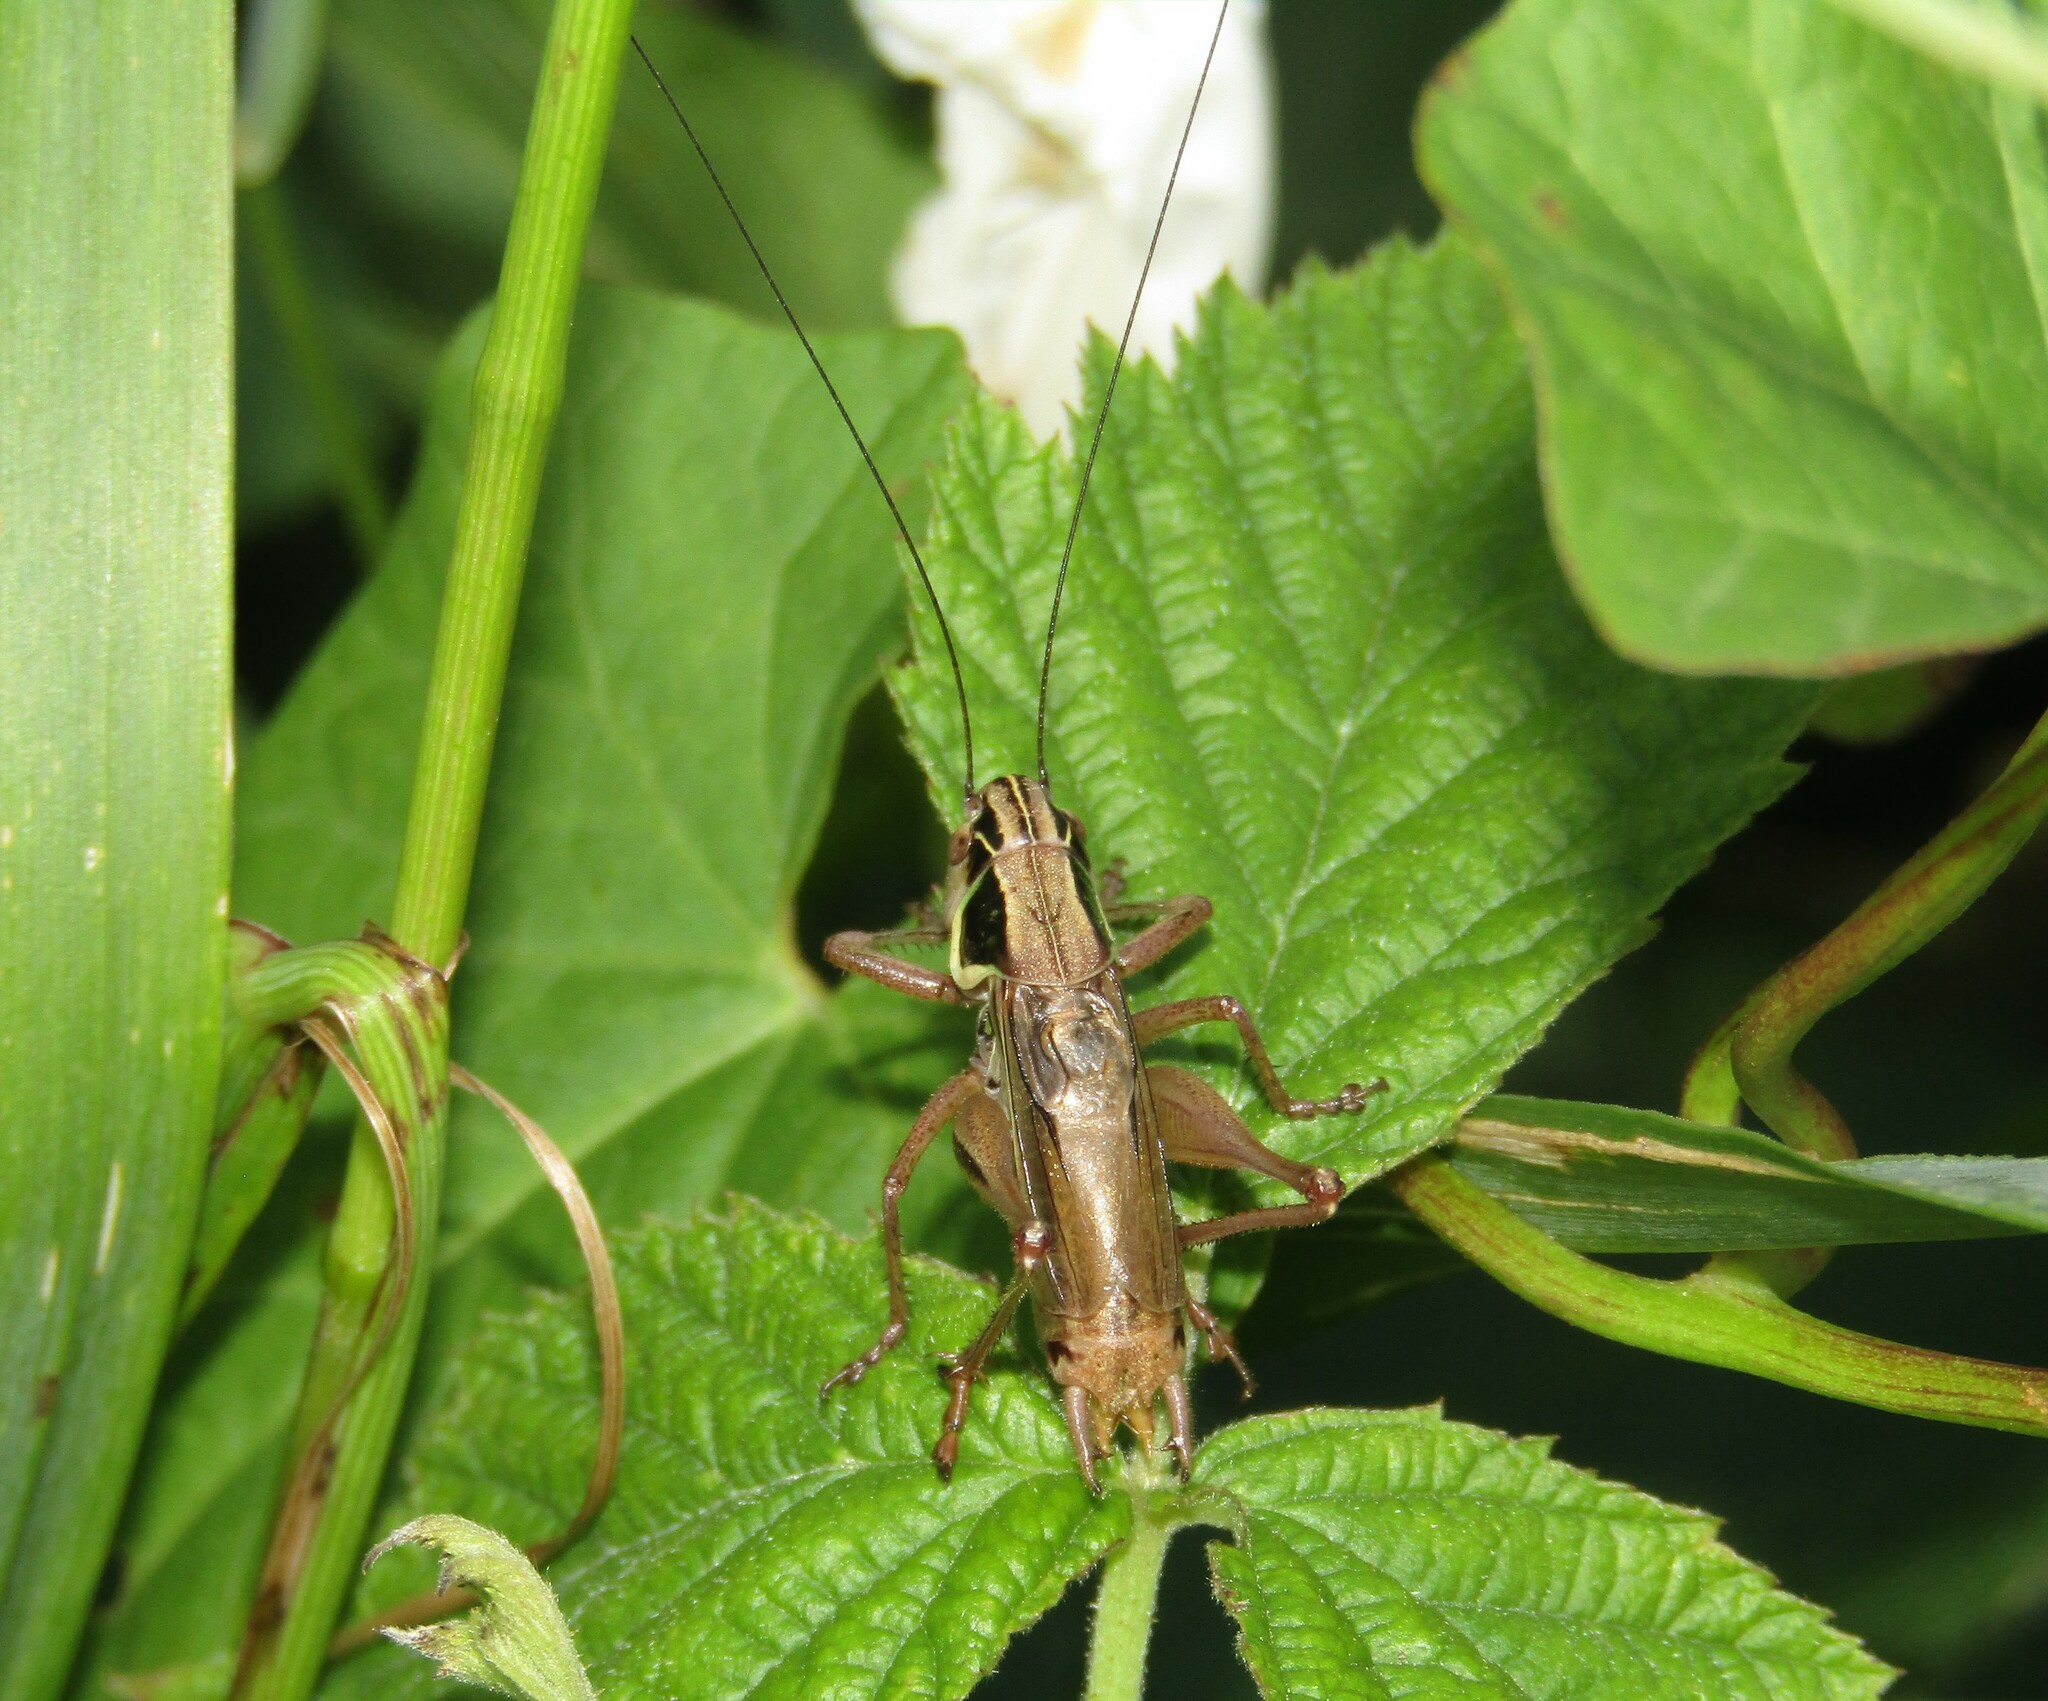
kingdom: Animalia
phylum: Arthropoda
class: Insecta
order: Orthoptera
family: Tettigoniidae
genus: Roeseliana
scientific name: Roeseliana roeselii
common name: Roesel's bush cricket
